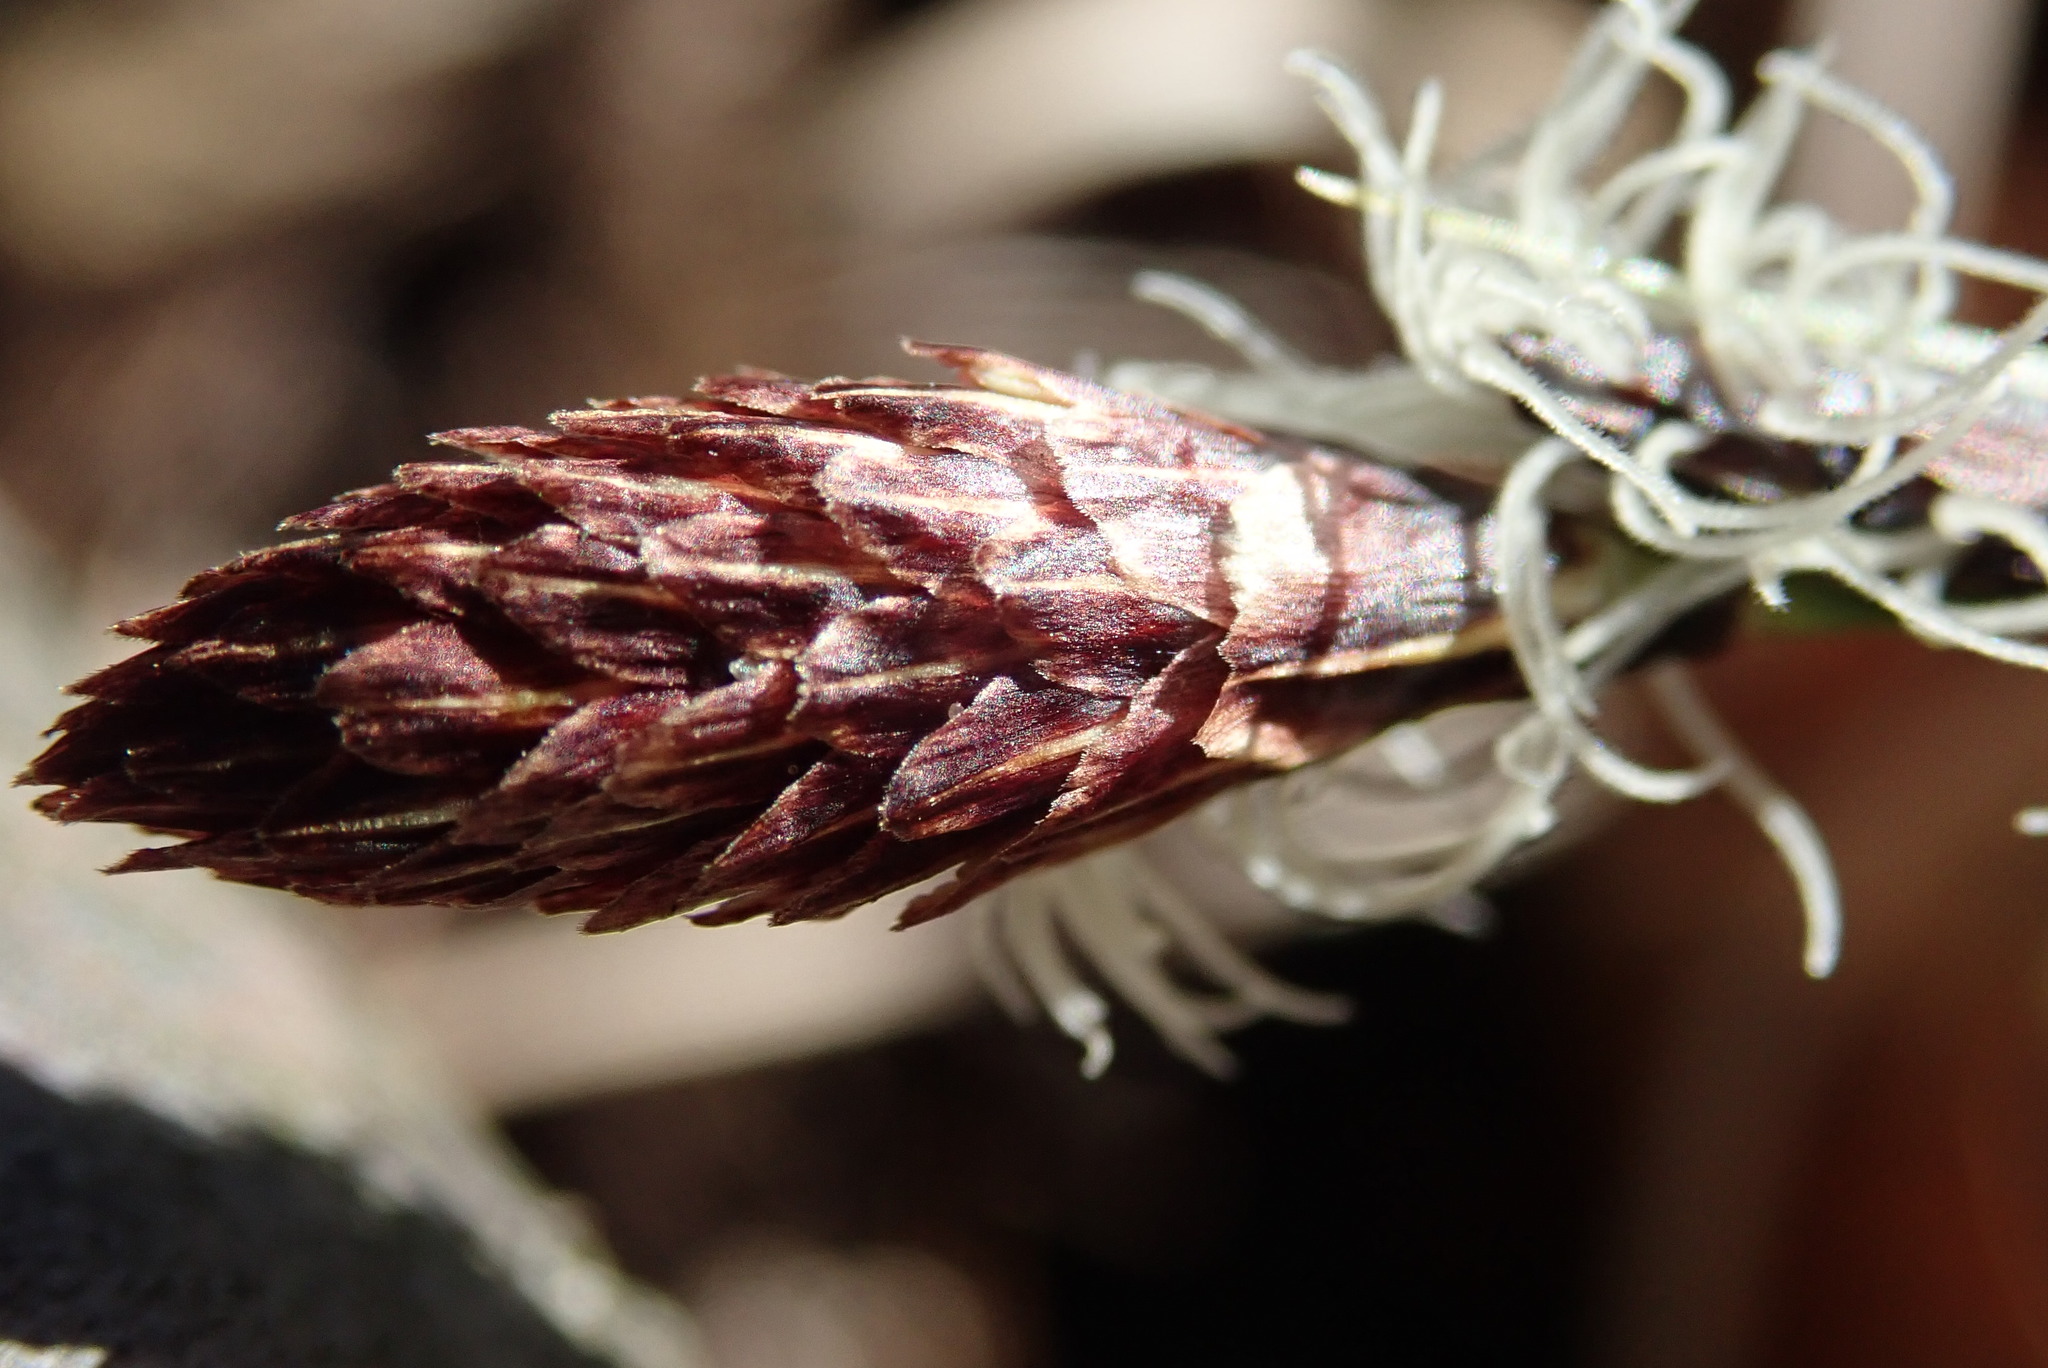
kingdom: Plantae
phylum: Tracheophyta
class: Liliopsida
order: Poales
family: Cyperaceae
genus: Carex
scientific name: Carex caryophyllea
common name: Spring sedge
